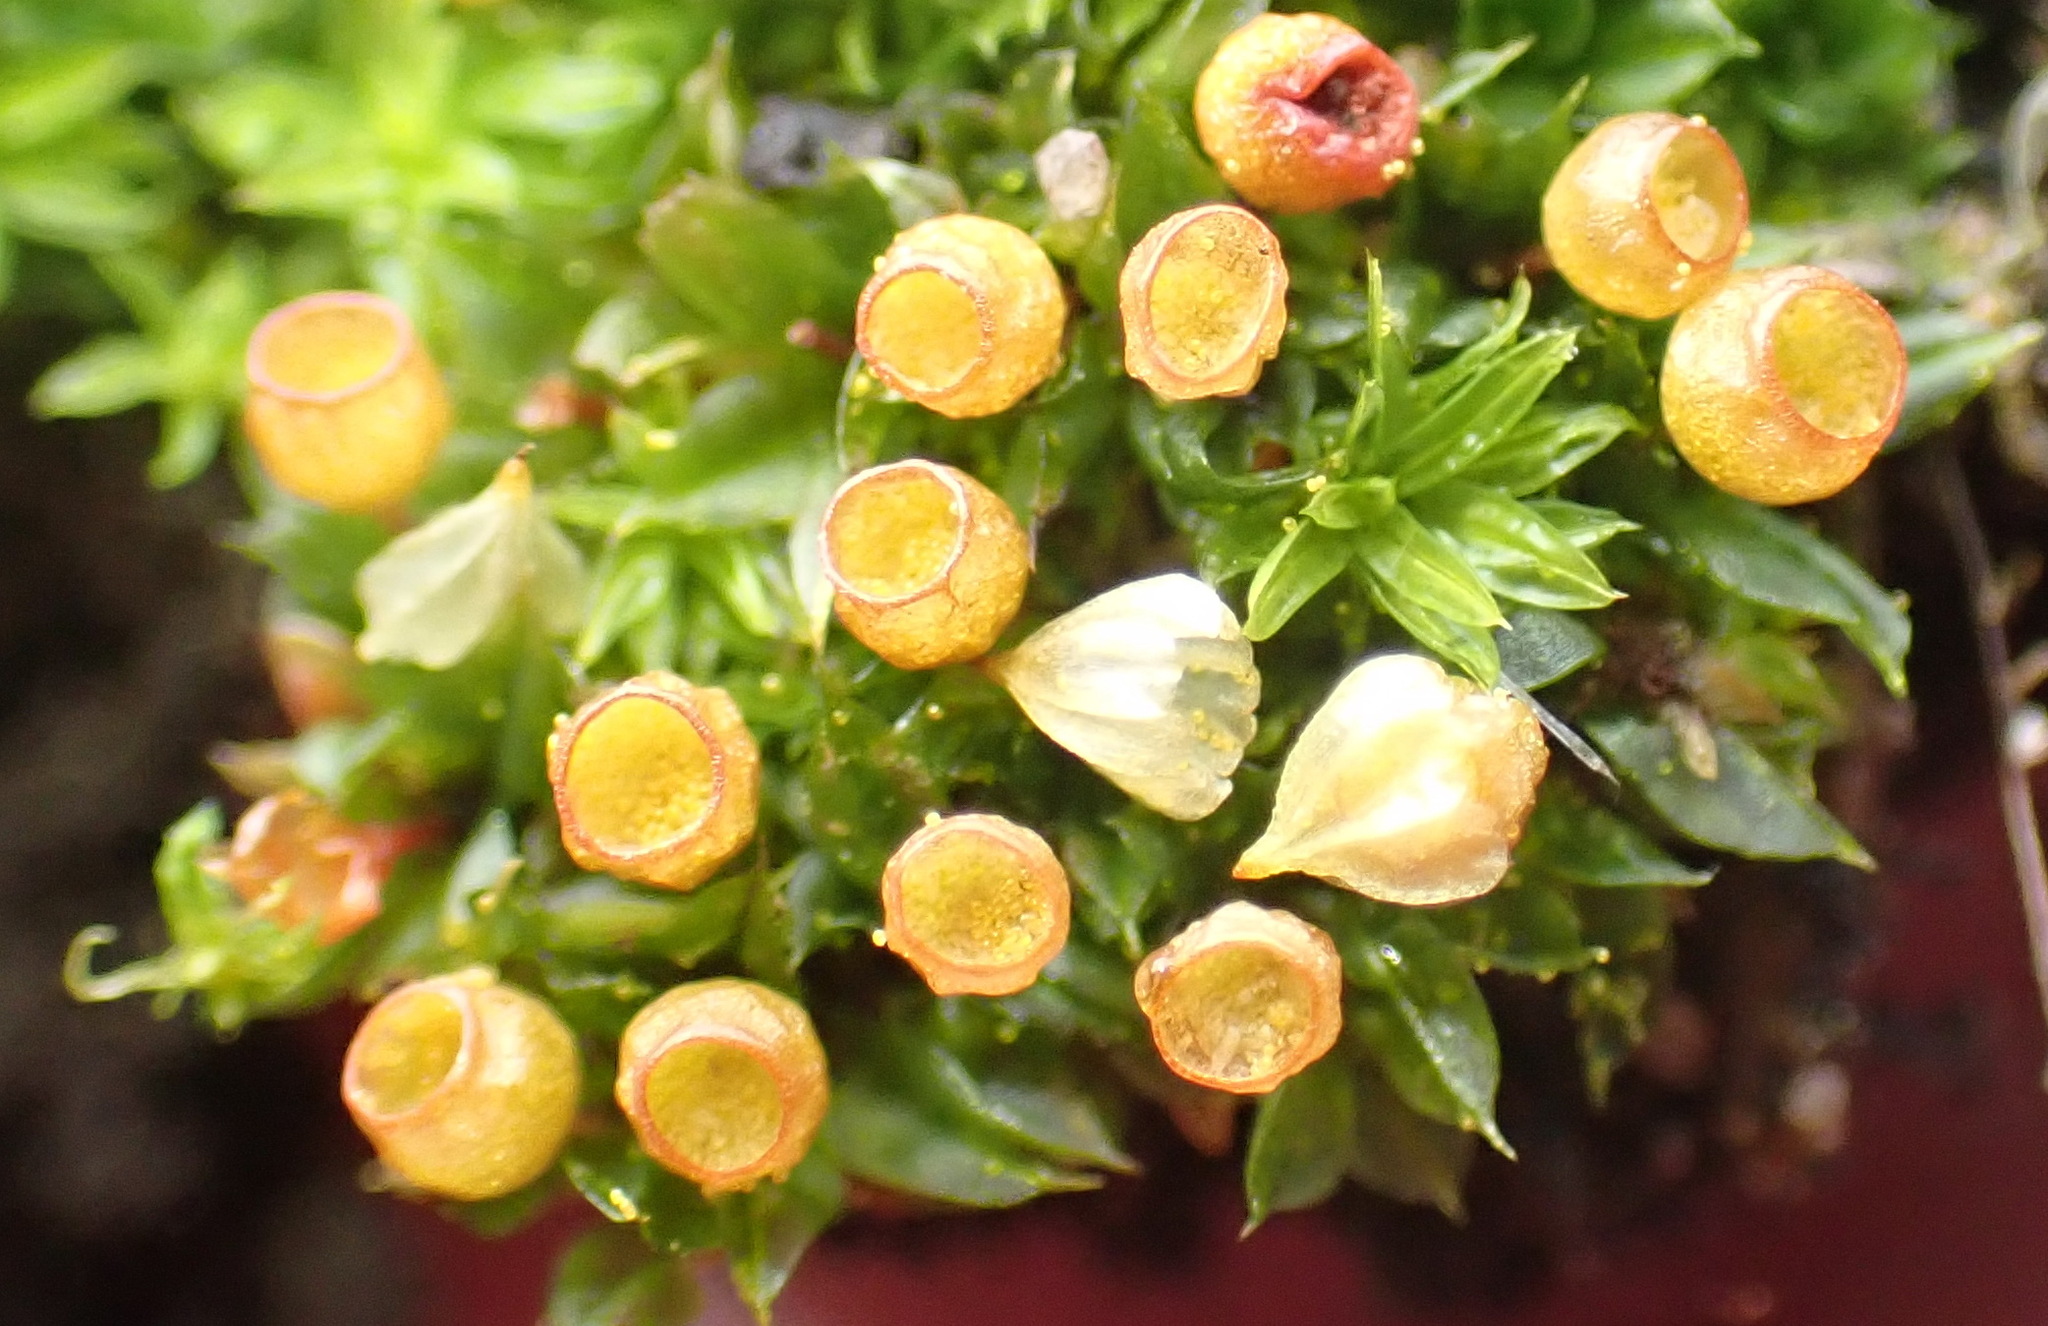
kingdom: Plantae
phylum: Bryophyta
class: Bryopsida
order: Funariales
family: Funariaceae
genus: Goniomitrium
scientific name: Goniomitrium acuminatum
